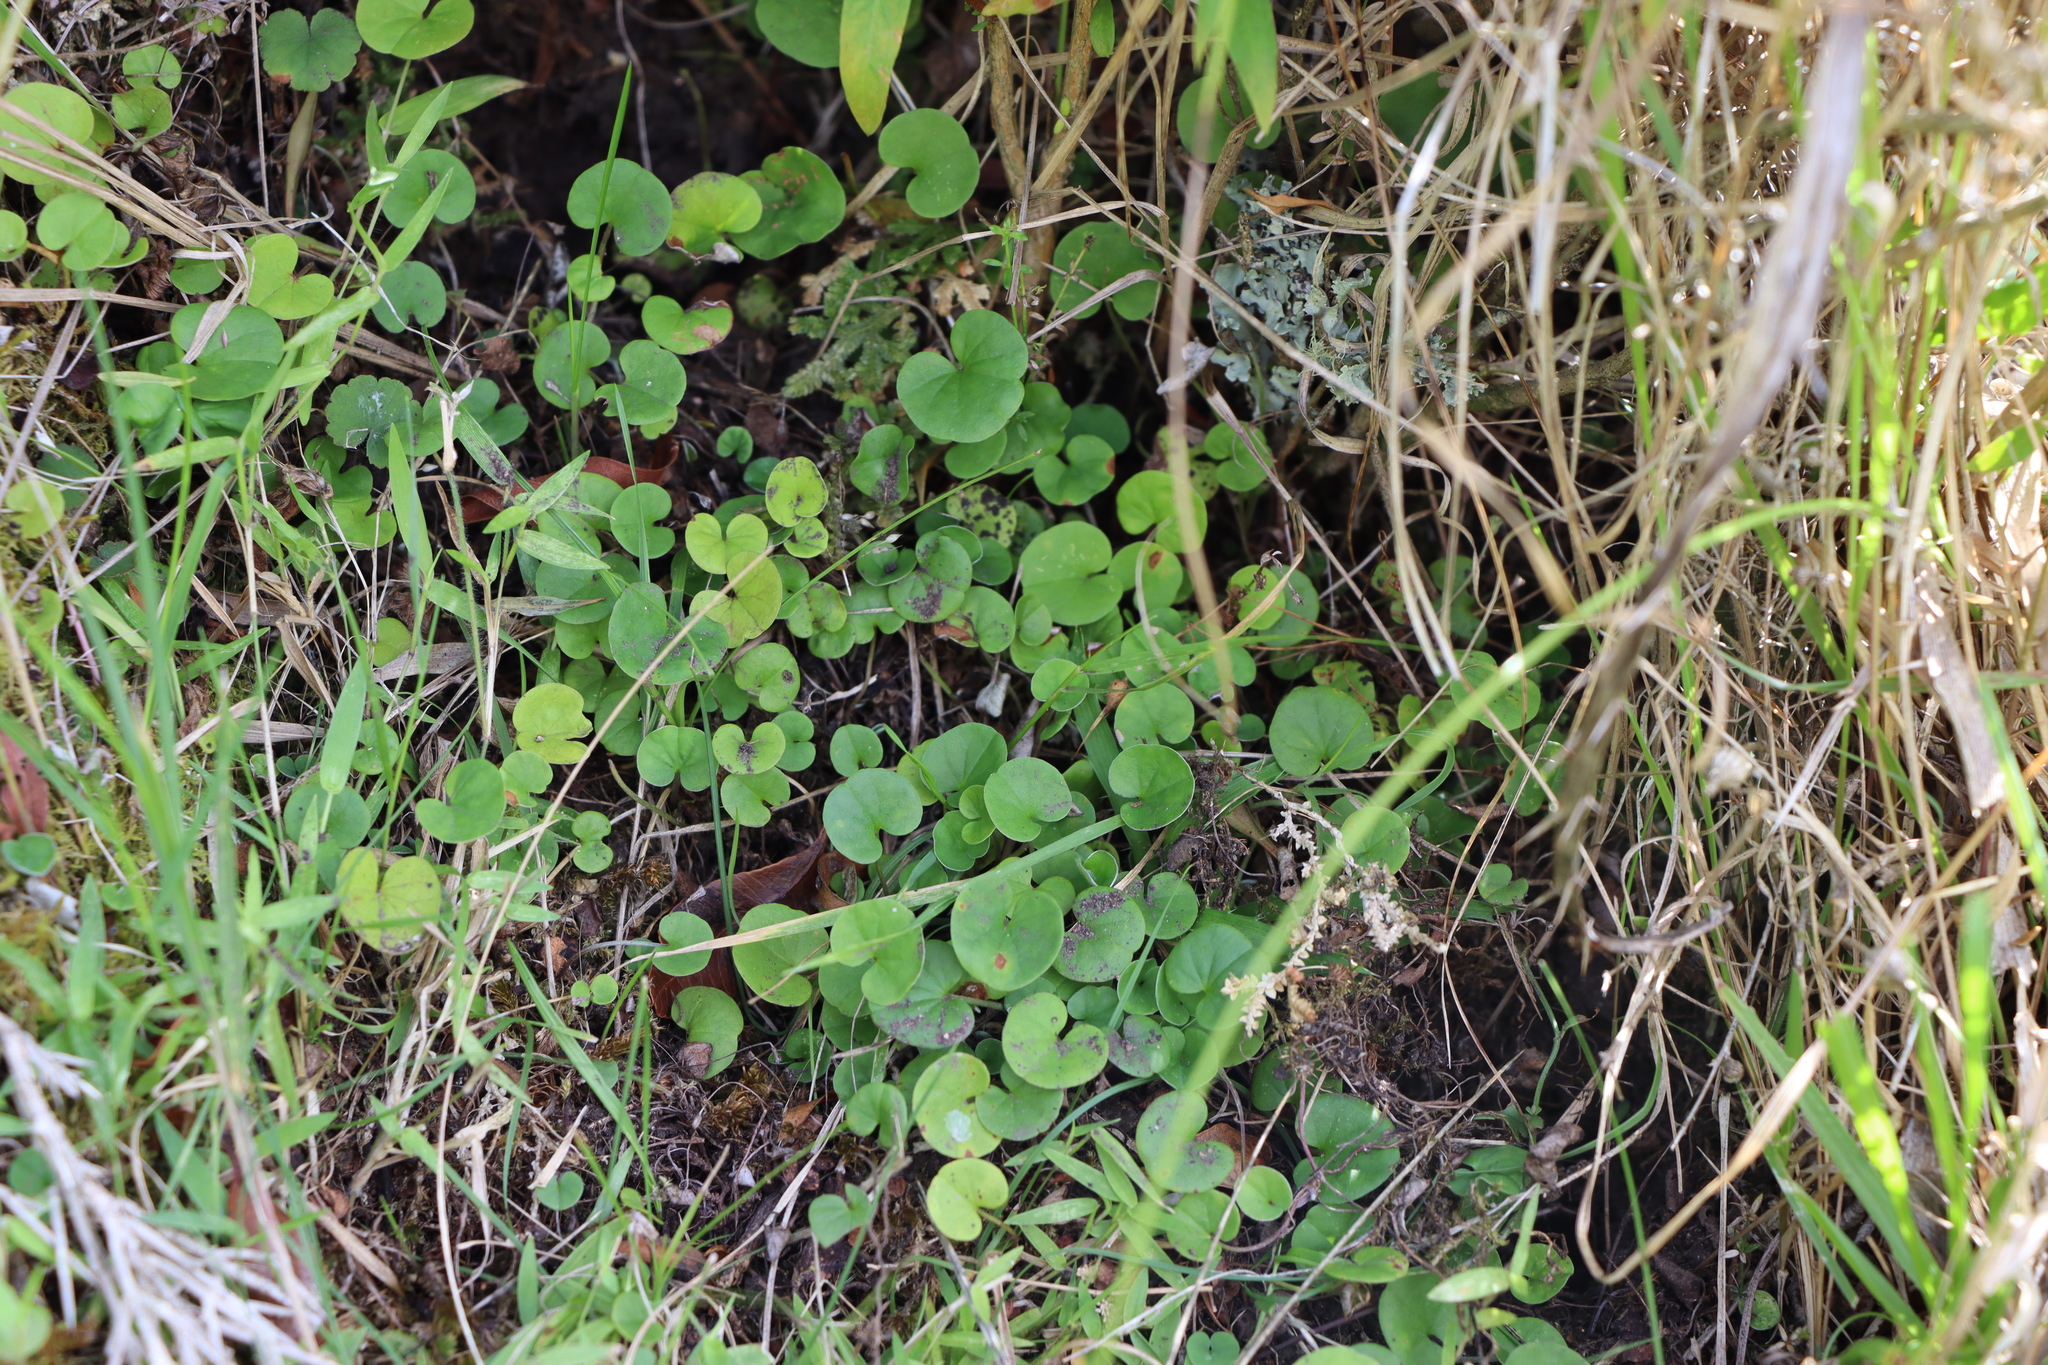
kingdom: Plantae
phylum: Tracheophyta
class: Magnoliopsida
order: Solanales
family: Convolvulaceae
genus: Dichondra
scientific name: Dichondra microcalyx
